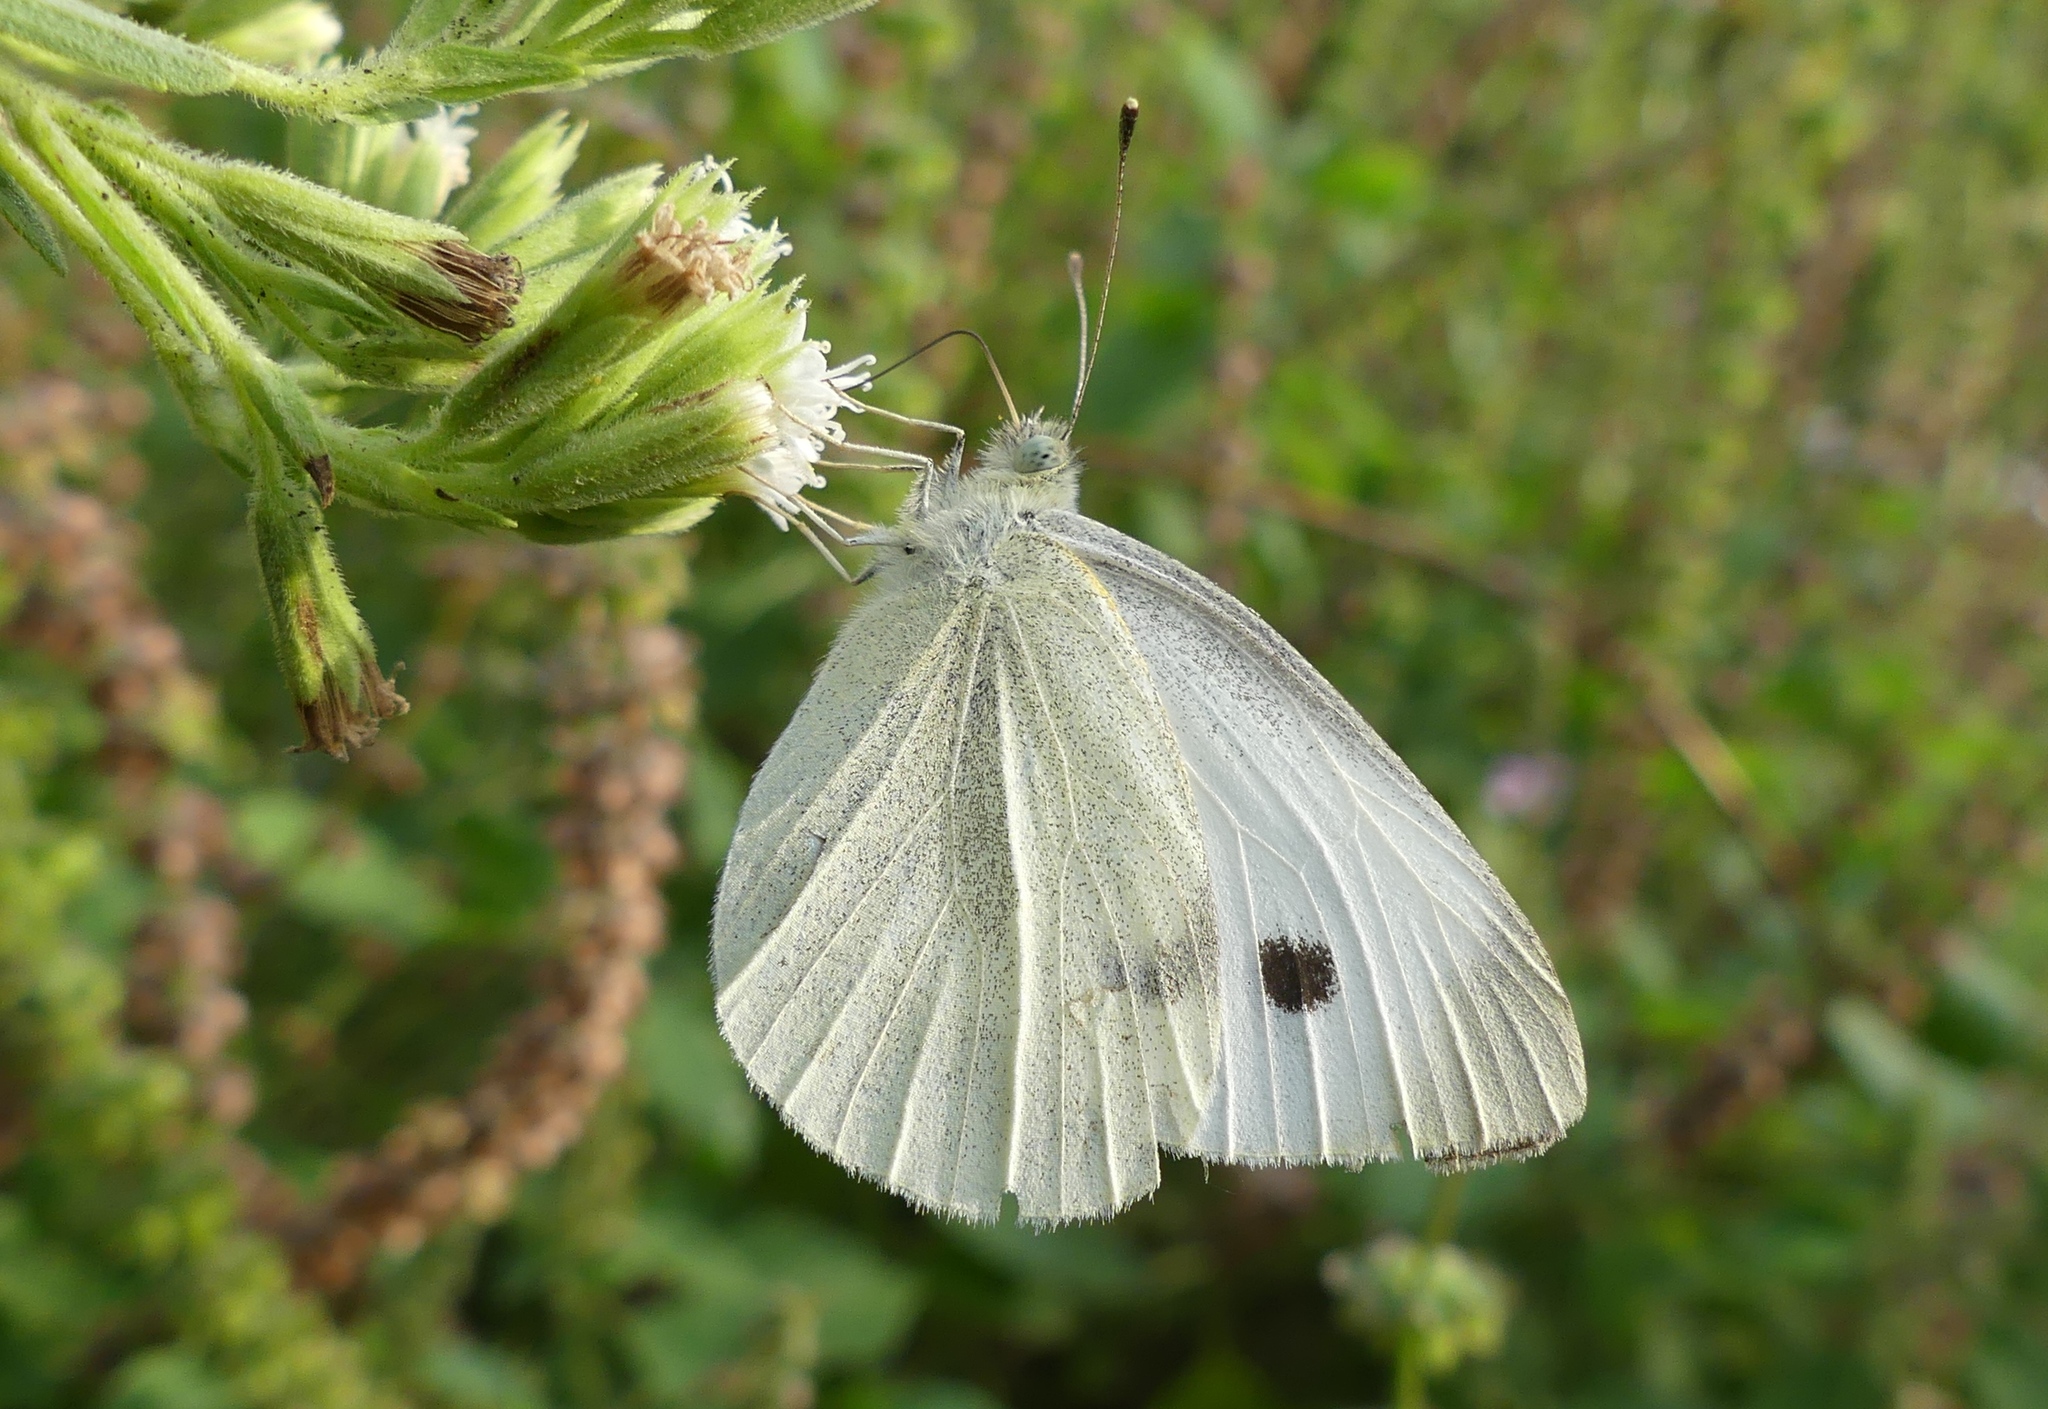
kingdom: Animalia
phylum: Arthropoda
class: Insecta
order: Lepidoptera
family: Pieridae
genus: Pieris
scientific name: Pieris rapae
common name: Small white
